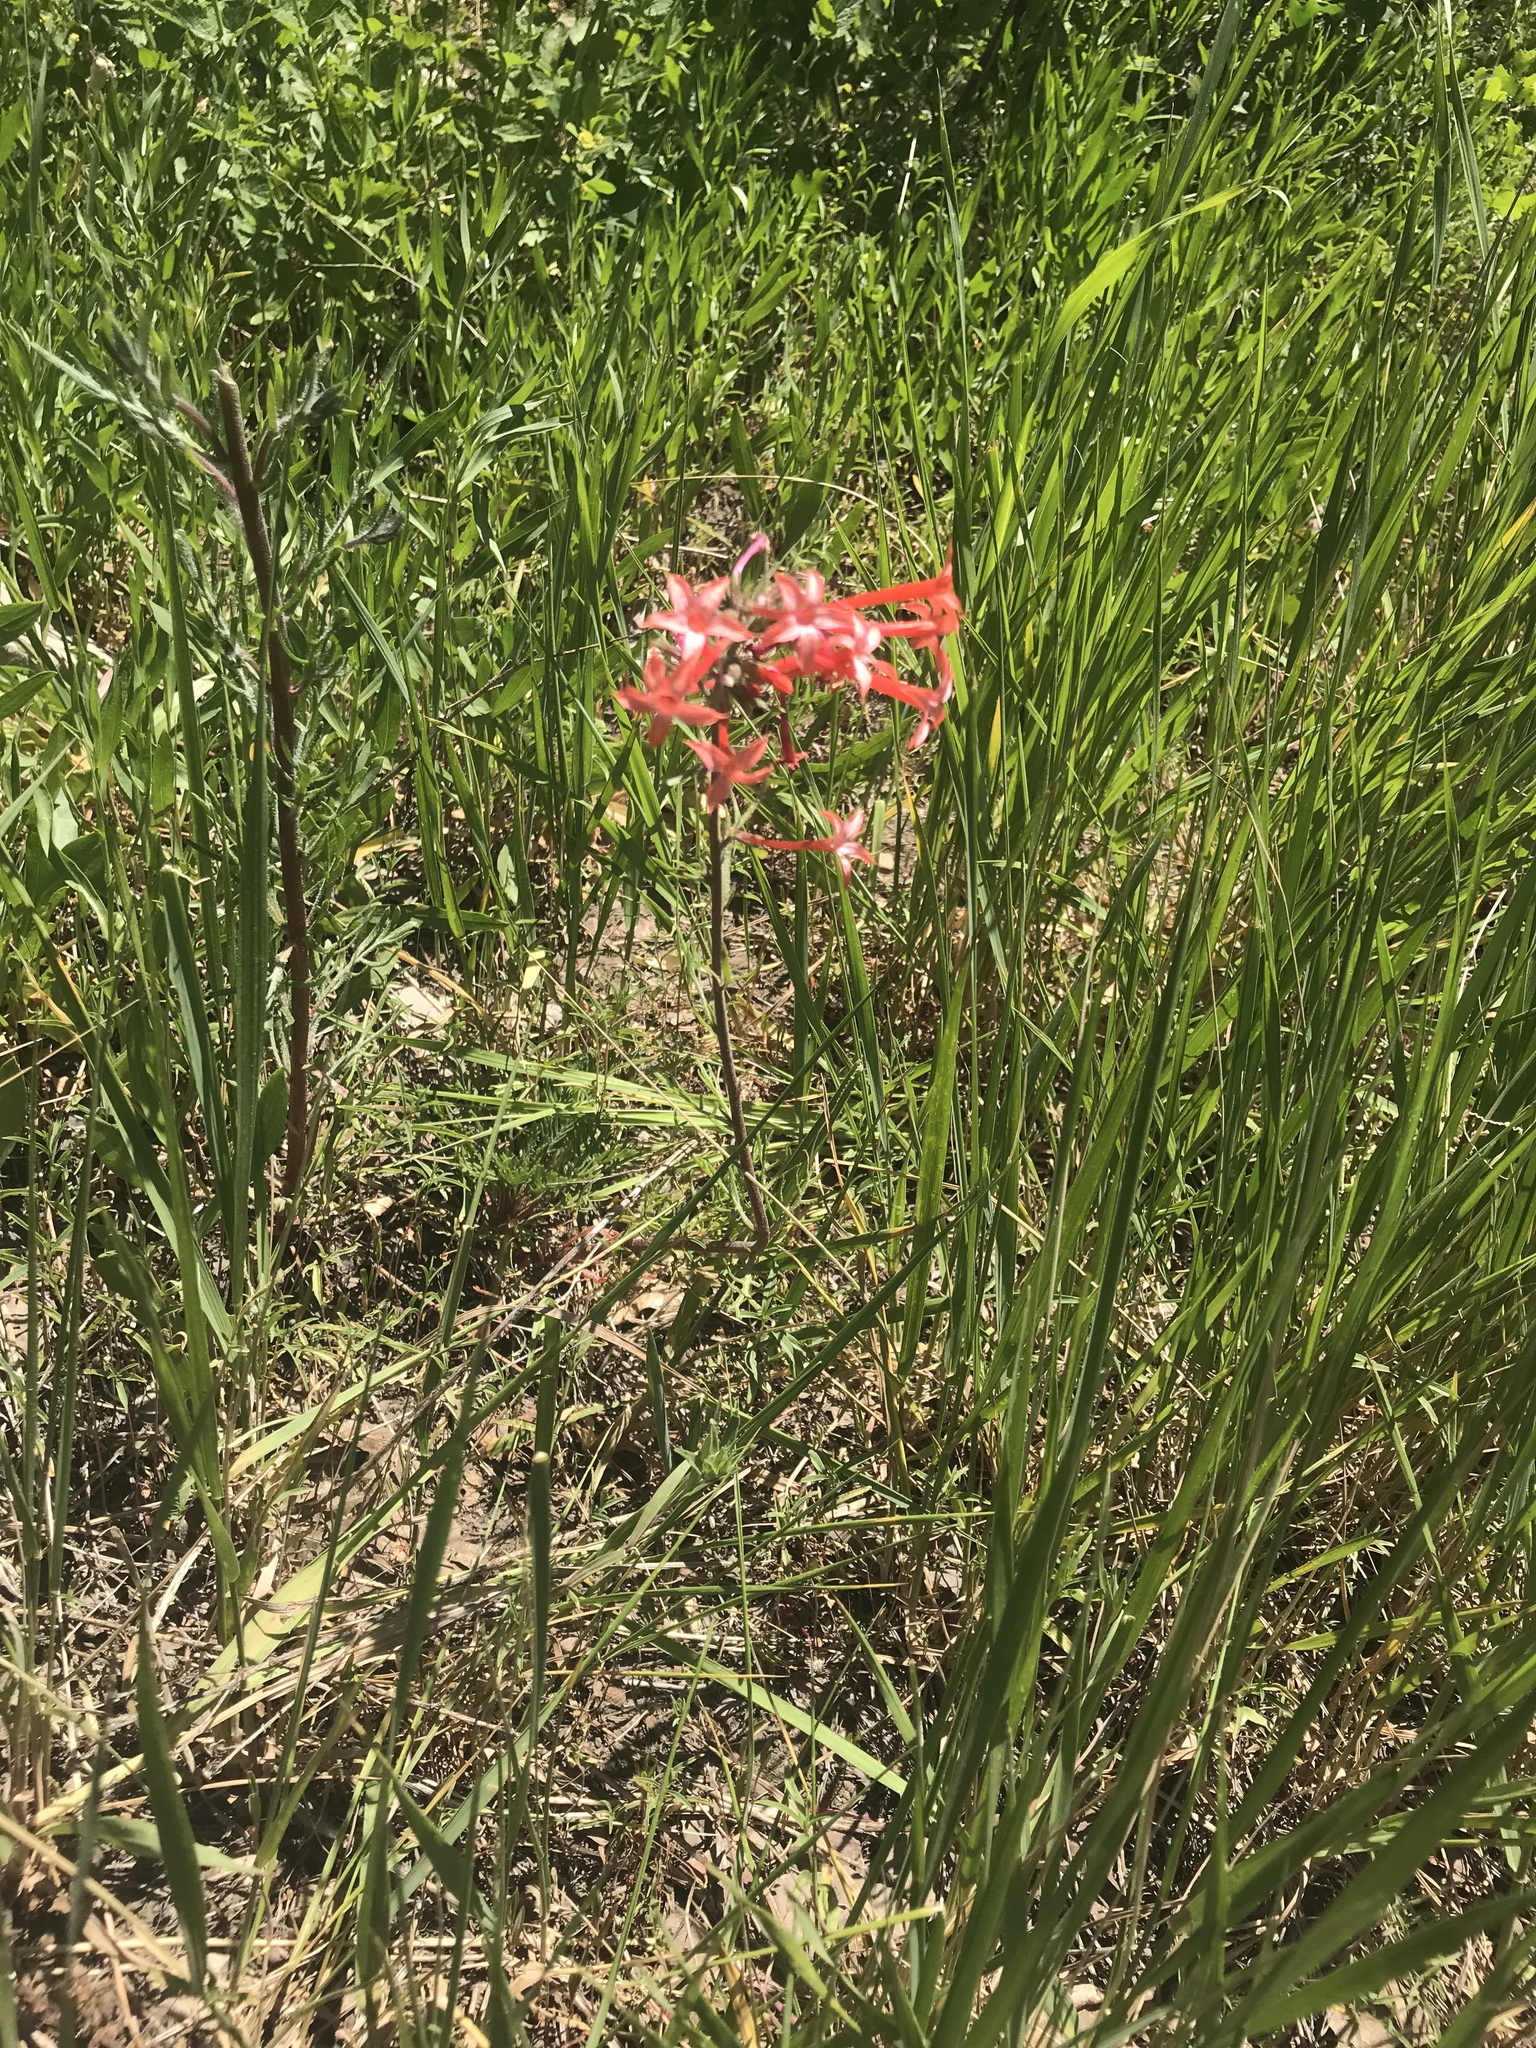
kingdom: Plantae
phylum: Tracheophyta
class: Magnoliopsida
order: Ericales
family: Polemoniaceae
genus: Ipomopsis
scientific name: Ipomopsis aggregata
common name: Scarlet gilia
